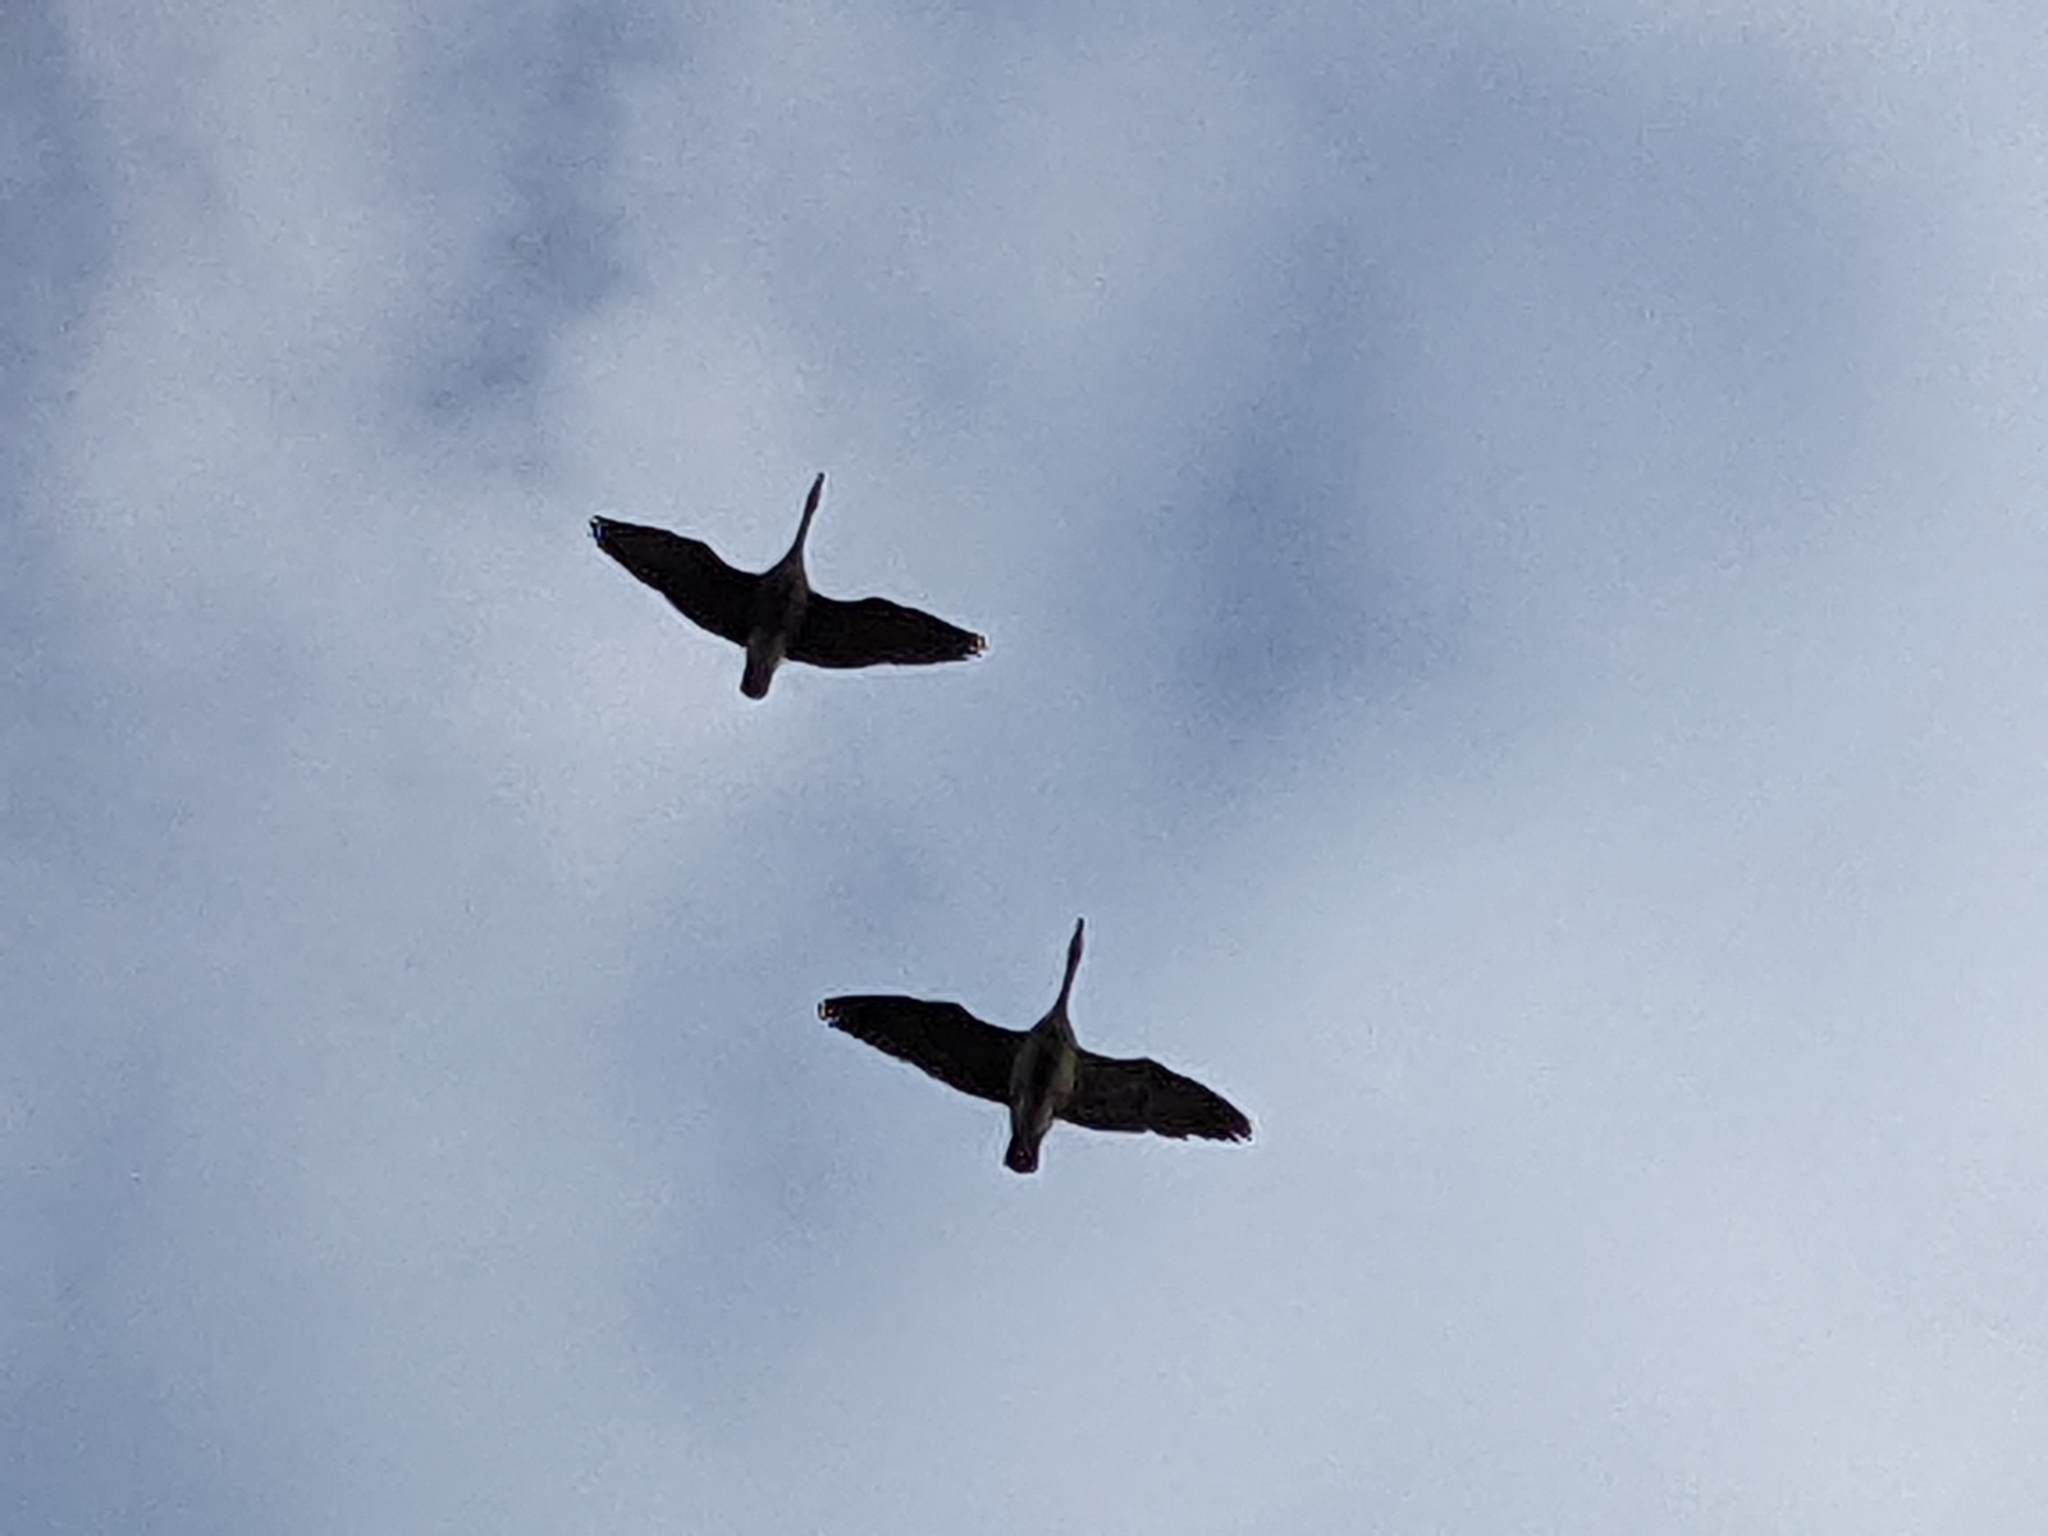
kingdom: Animalia
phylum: Chordata
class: Aves
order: Anseriformes
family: Anatidae
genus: Branta
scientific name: Branta canadensis
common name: Canada goose
